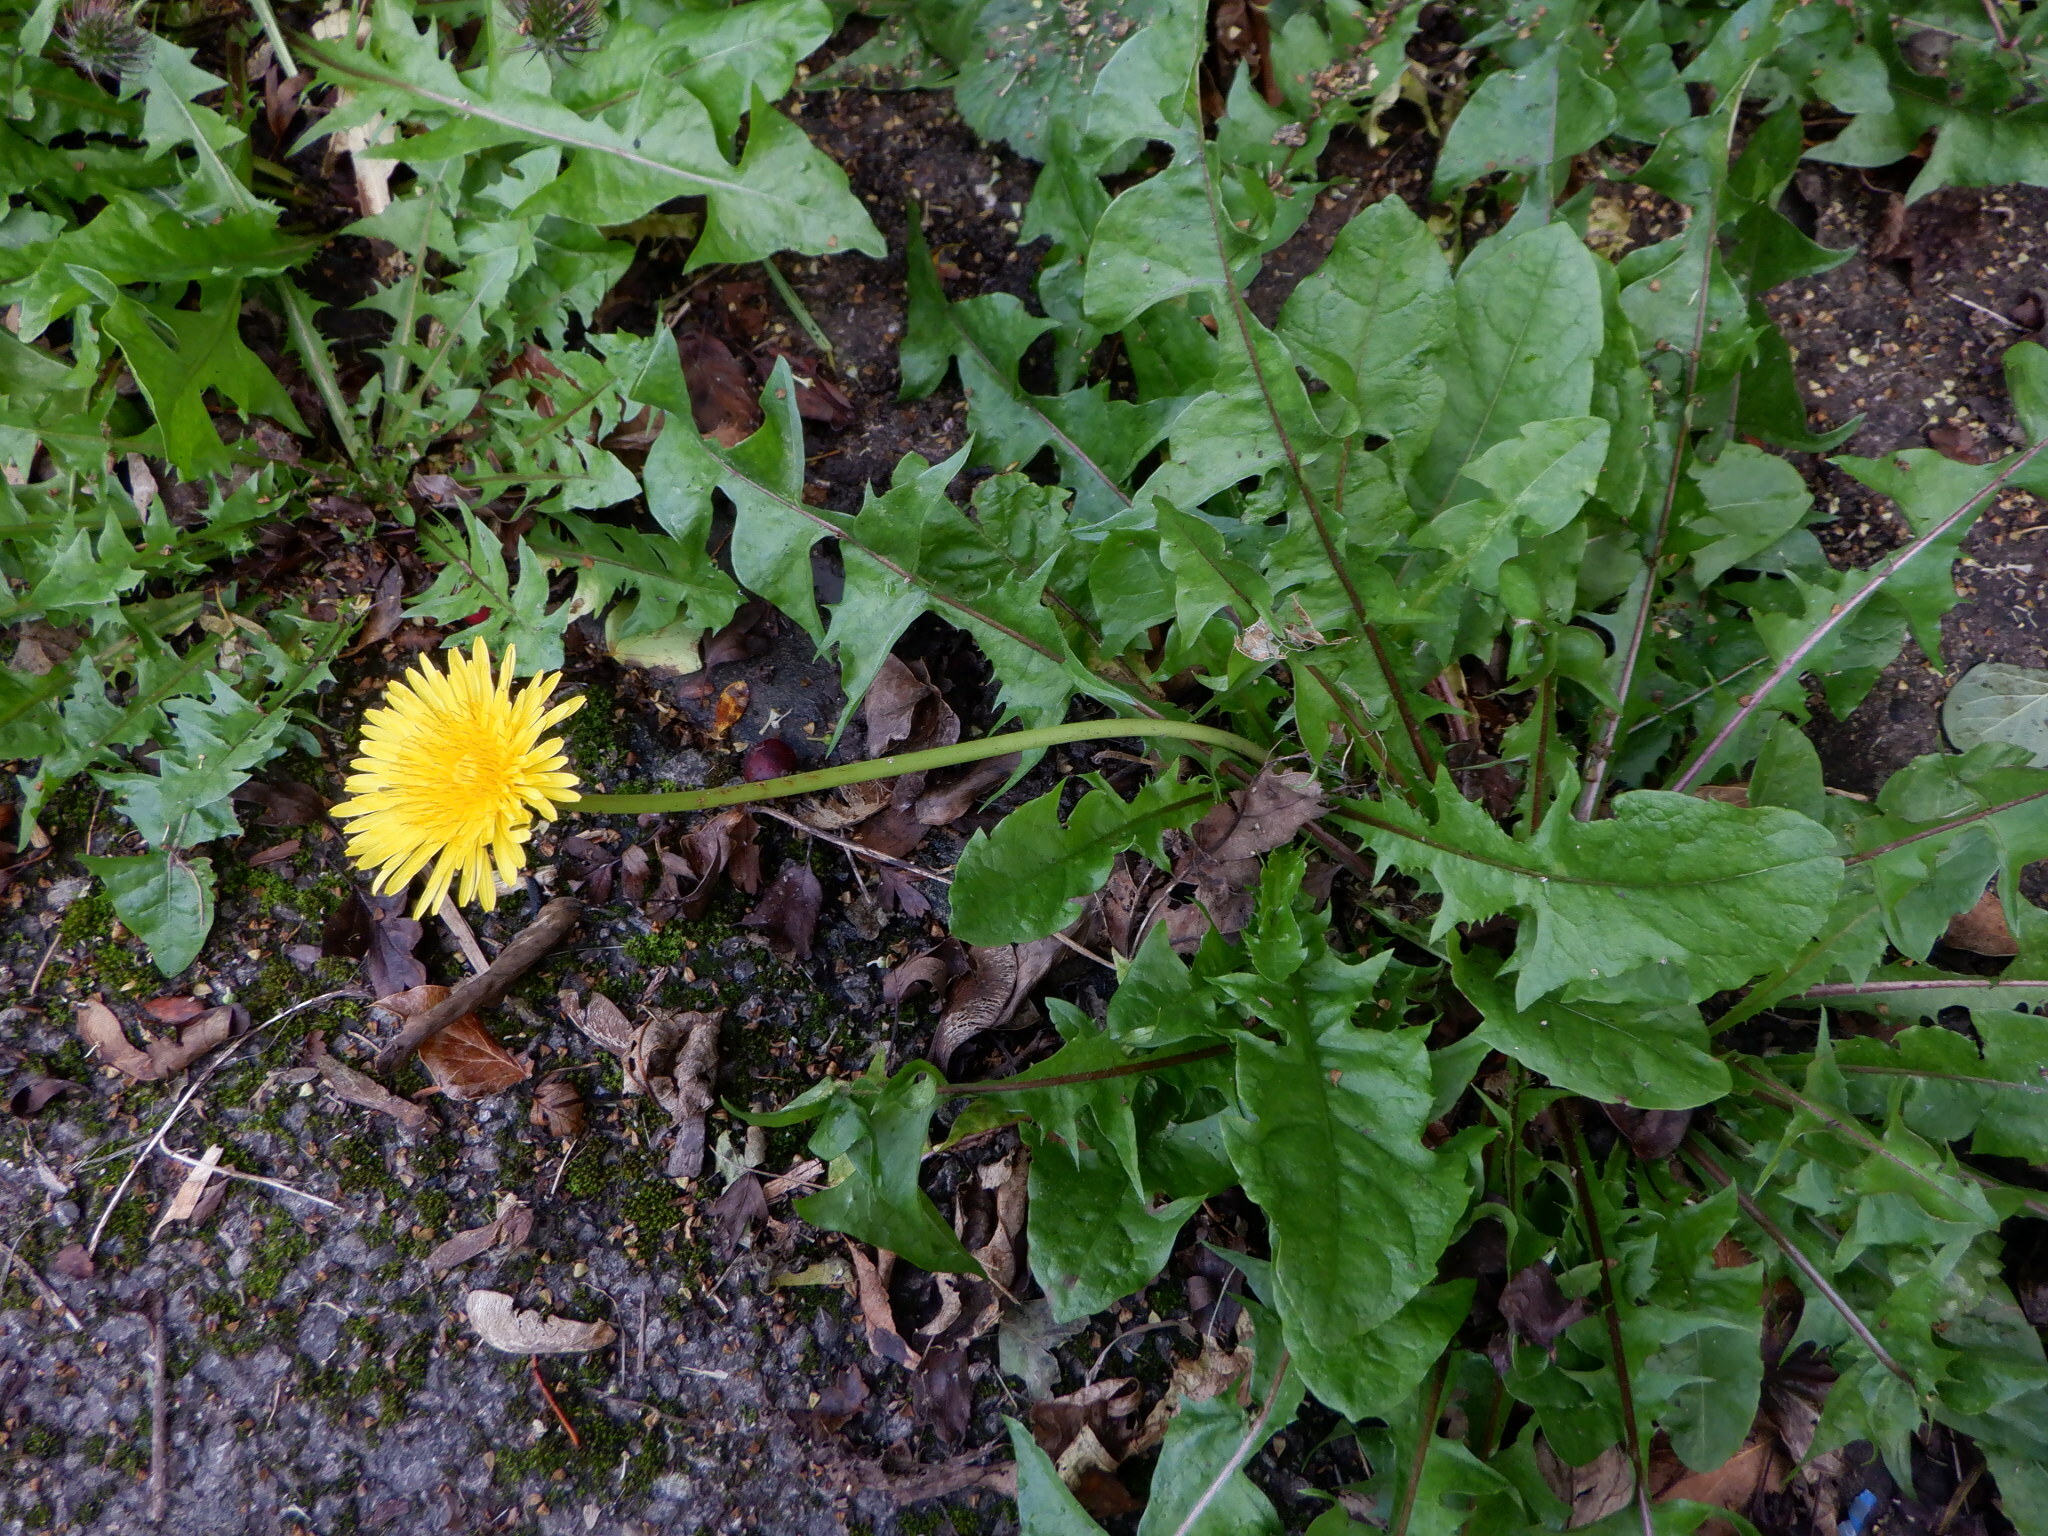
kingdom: Plantae
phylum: Tracheophyta
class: Magnoliopsida
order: Asterales
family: Asteraceae
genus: Taraxacum
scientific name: Taraxacum officinale
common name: Common dandelion
